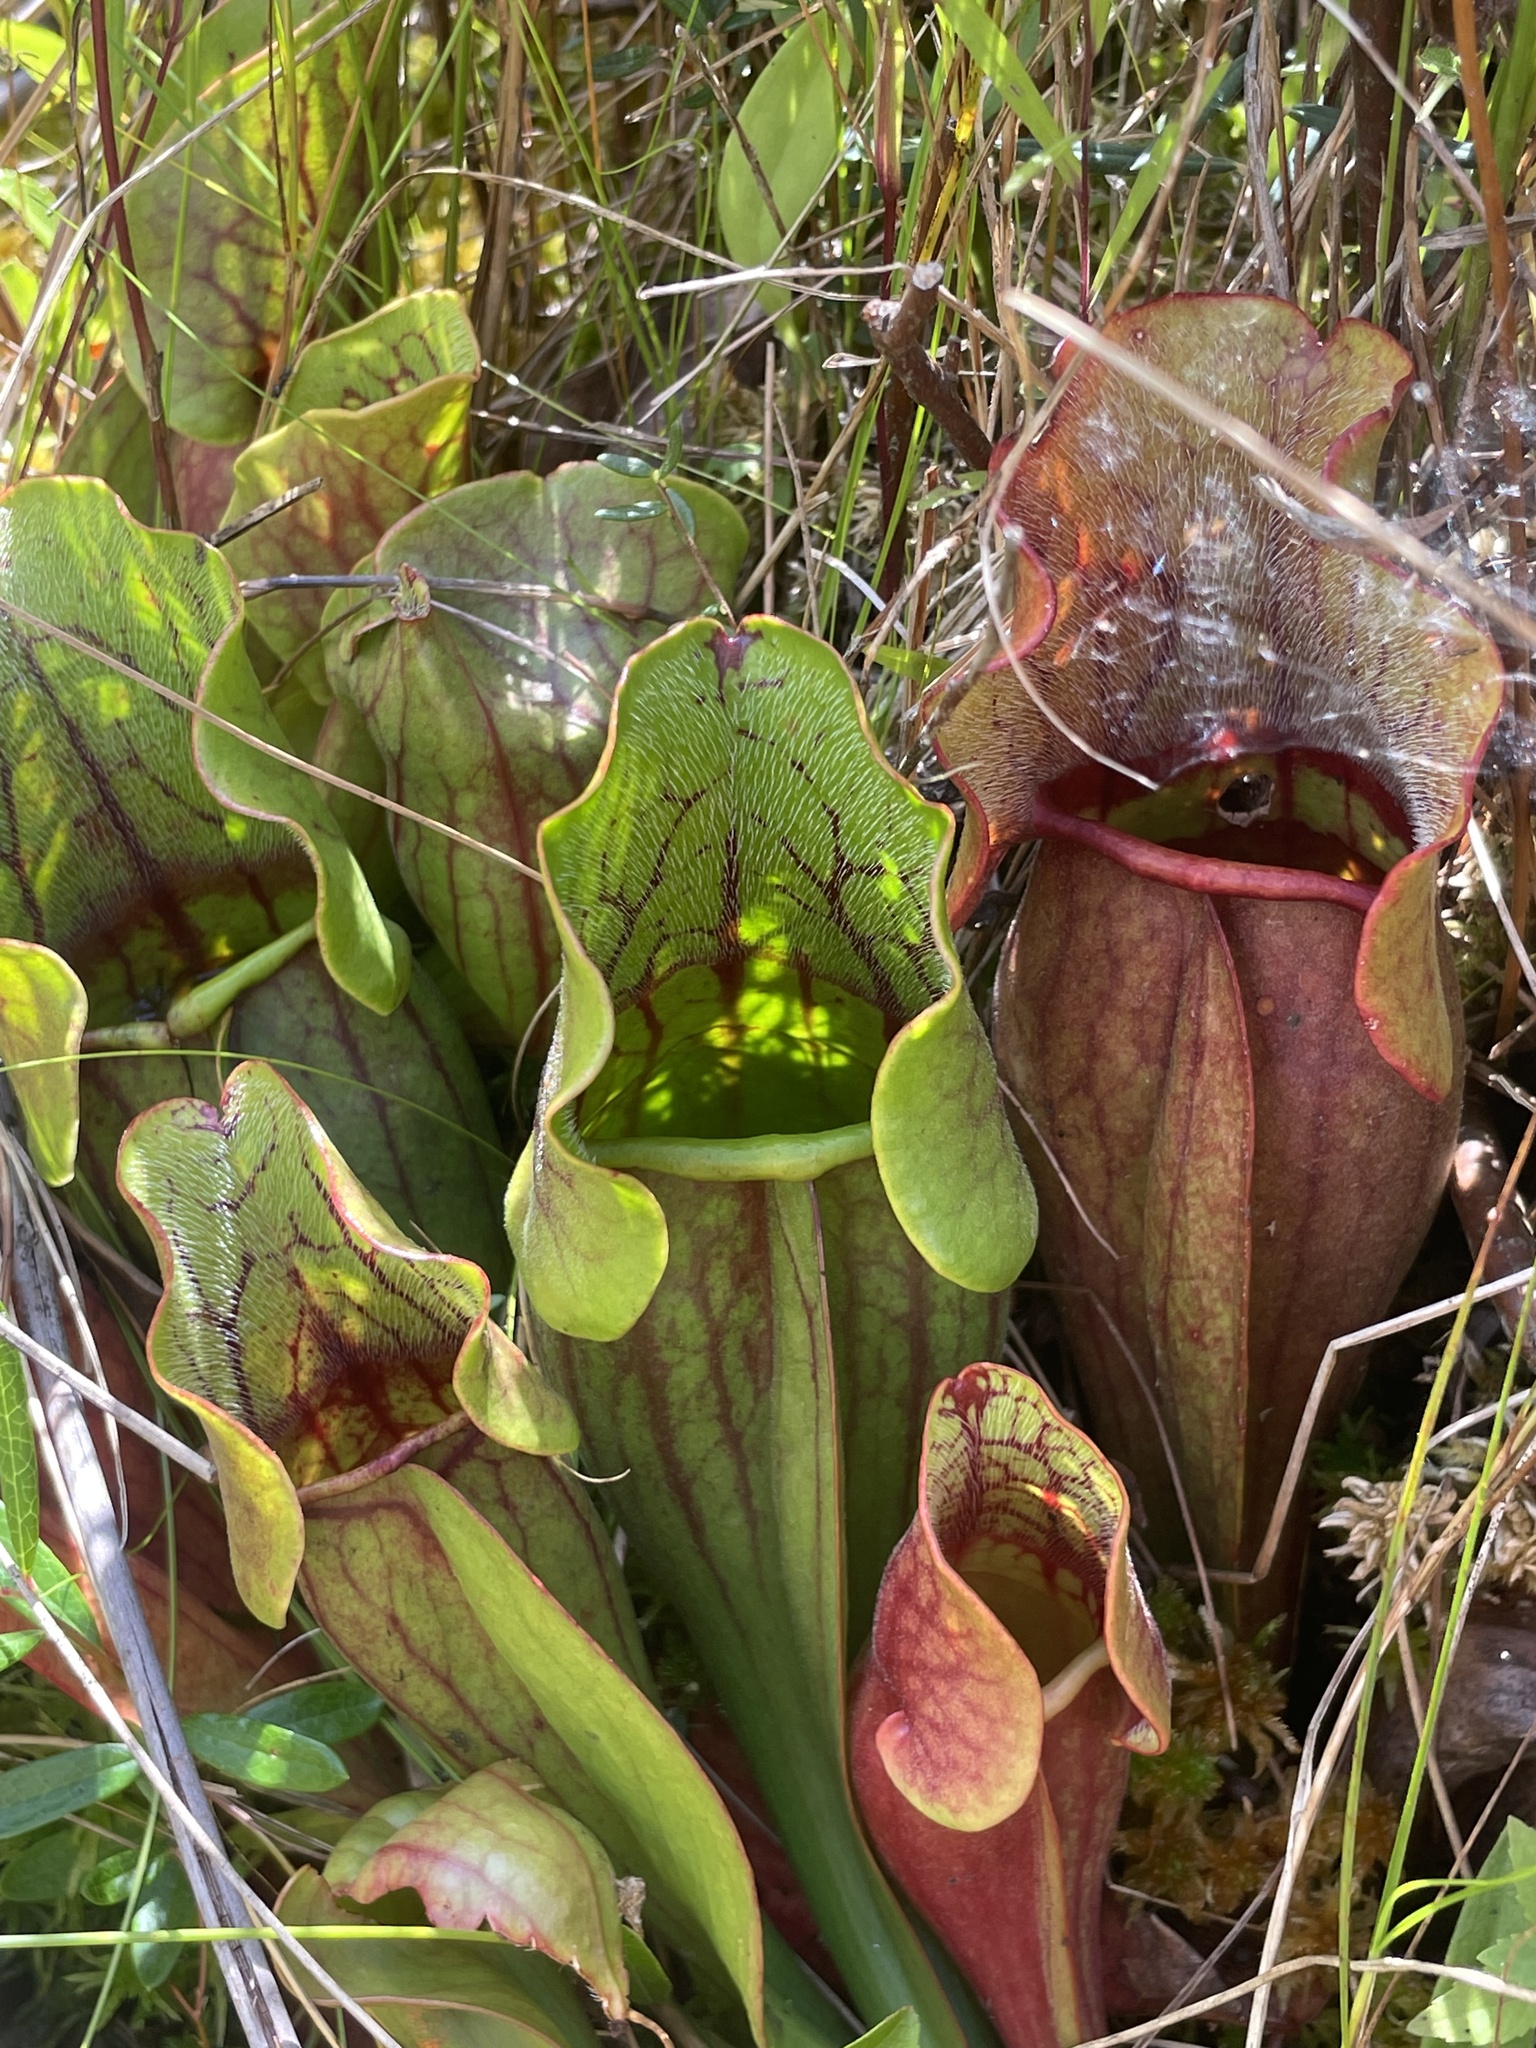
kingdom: Plantae
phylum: Tracheophyta
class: Magnoliopsida
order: Ericales
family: Sarraceniaceae
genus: Sarracenia
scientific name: Sarracenia purpurea
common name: Pitcherplant
